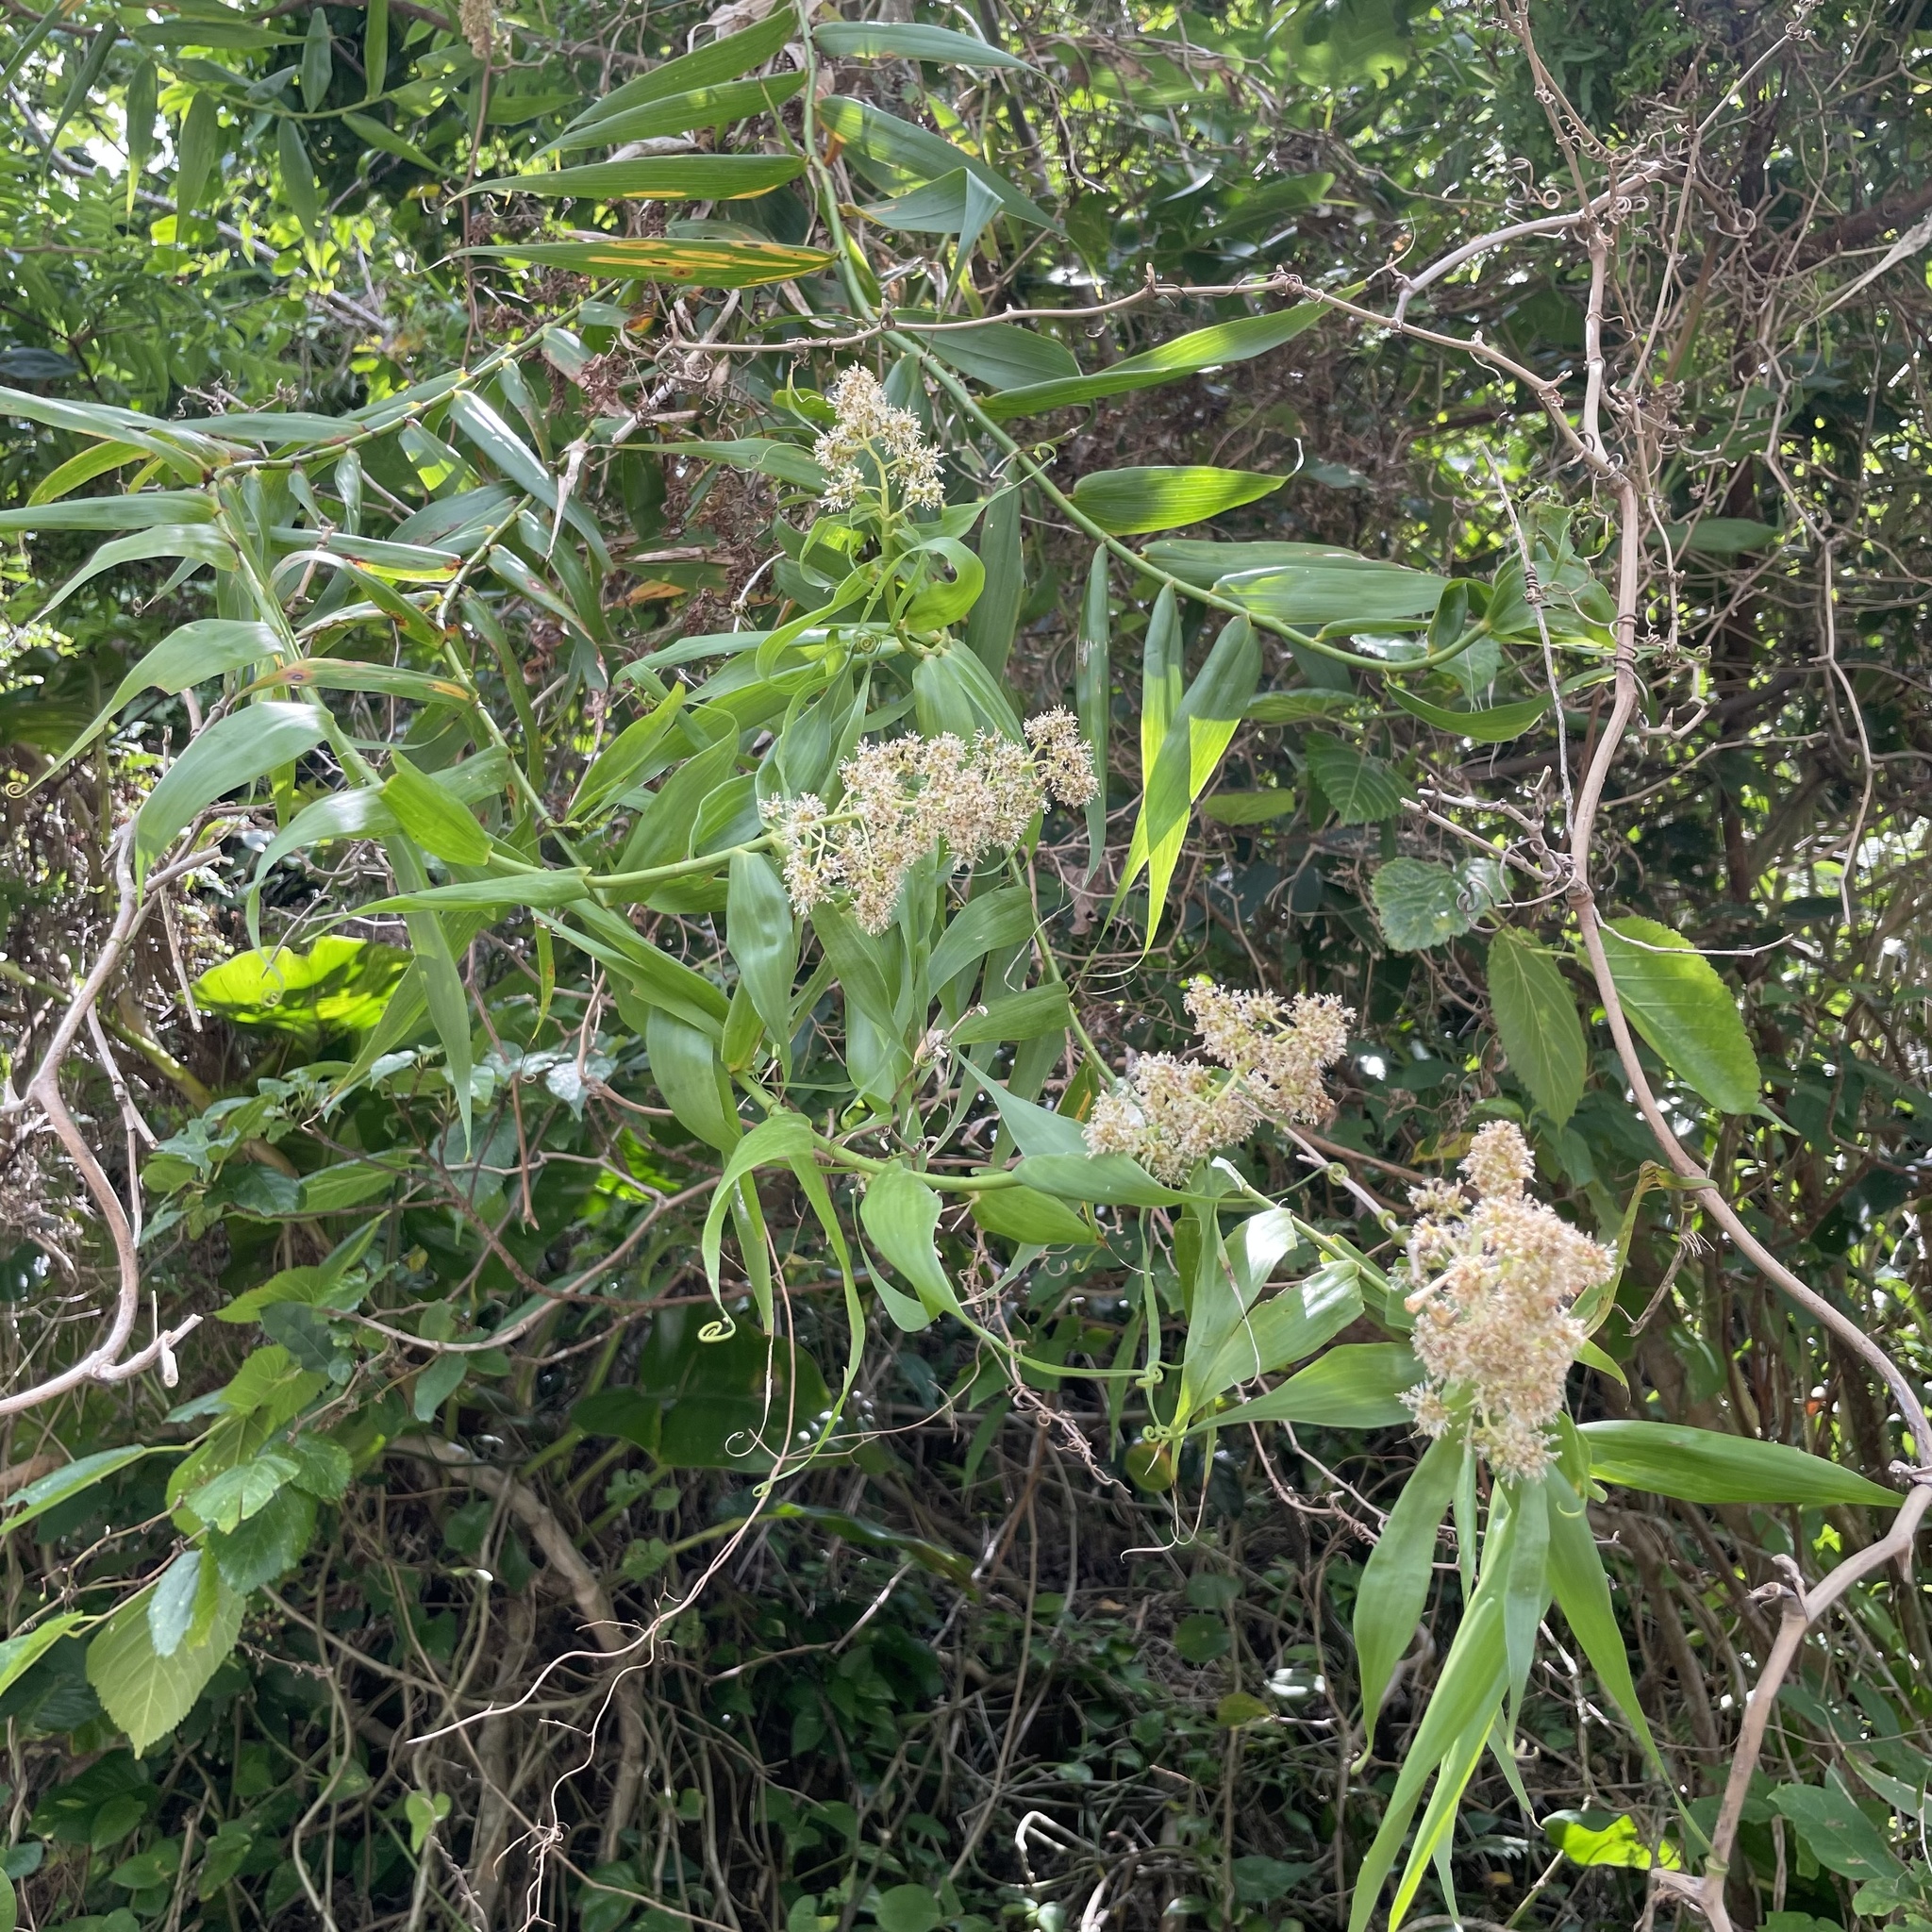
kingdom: Plantae
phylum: Tracheophyta
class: Liliopsida
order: Poales
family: Flagellariaceae
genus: Flagellaria
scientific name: Flagellaria indica
